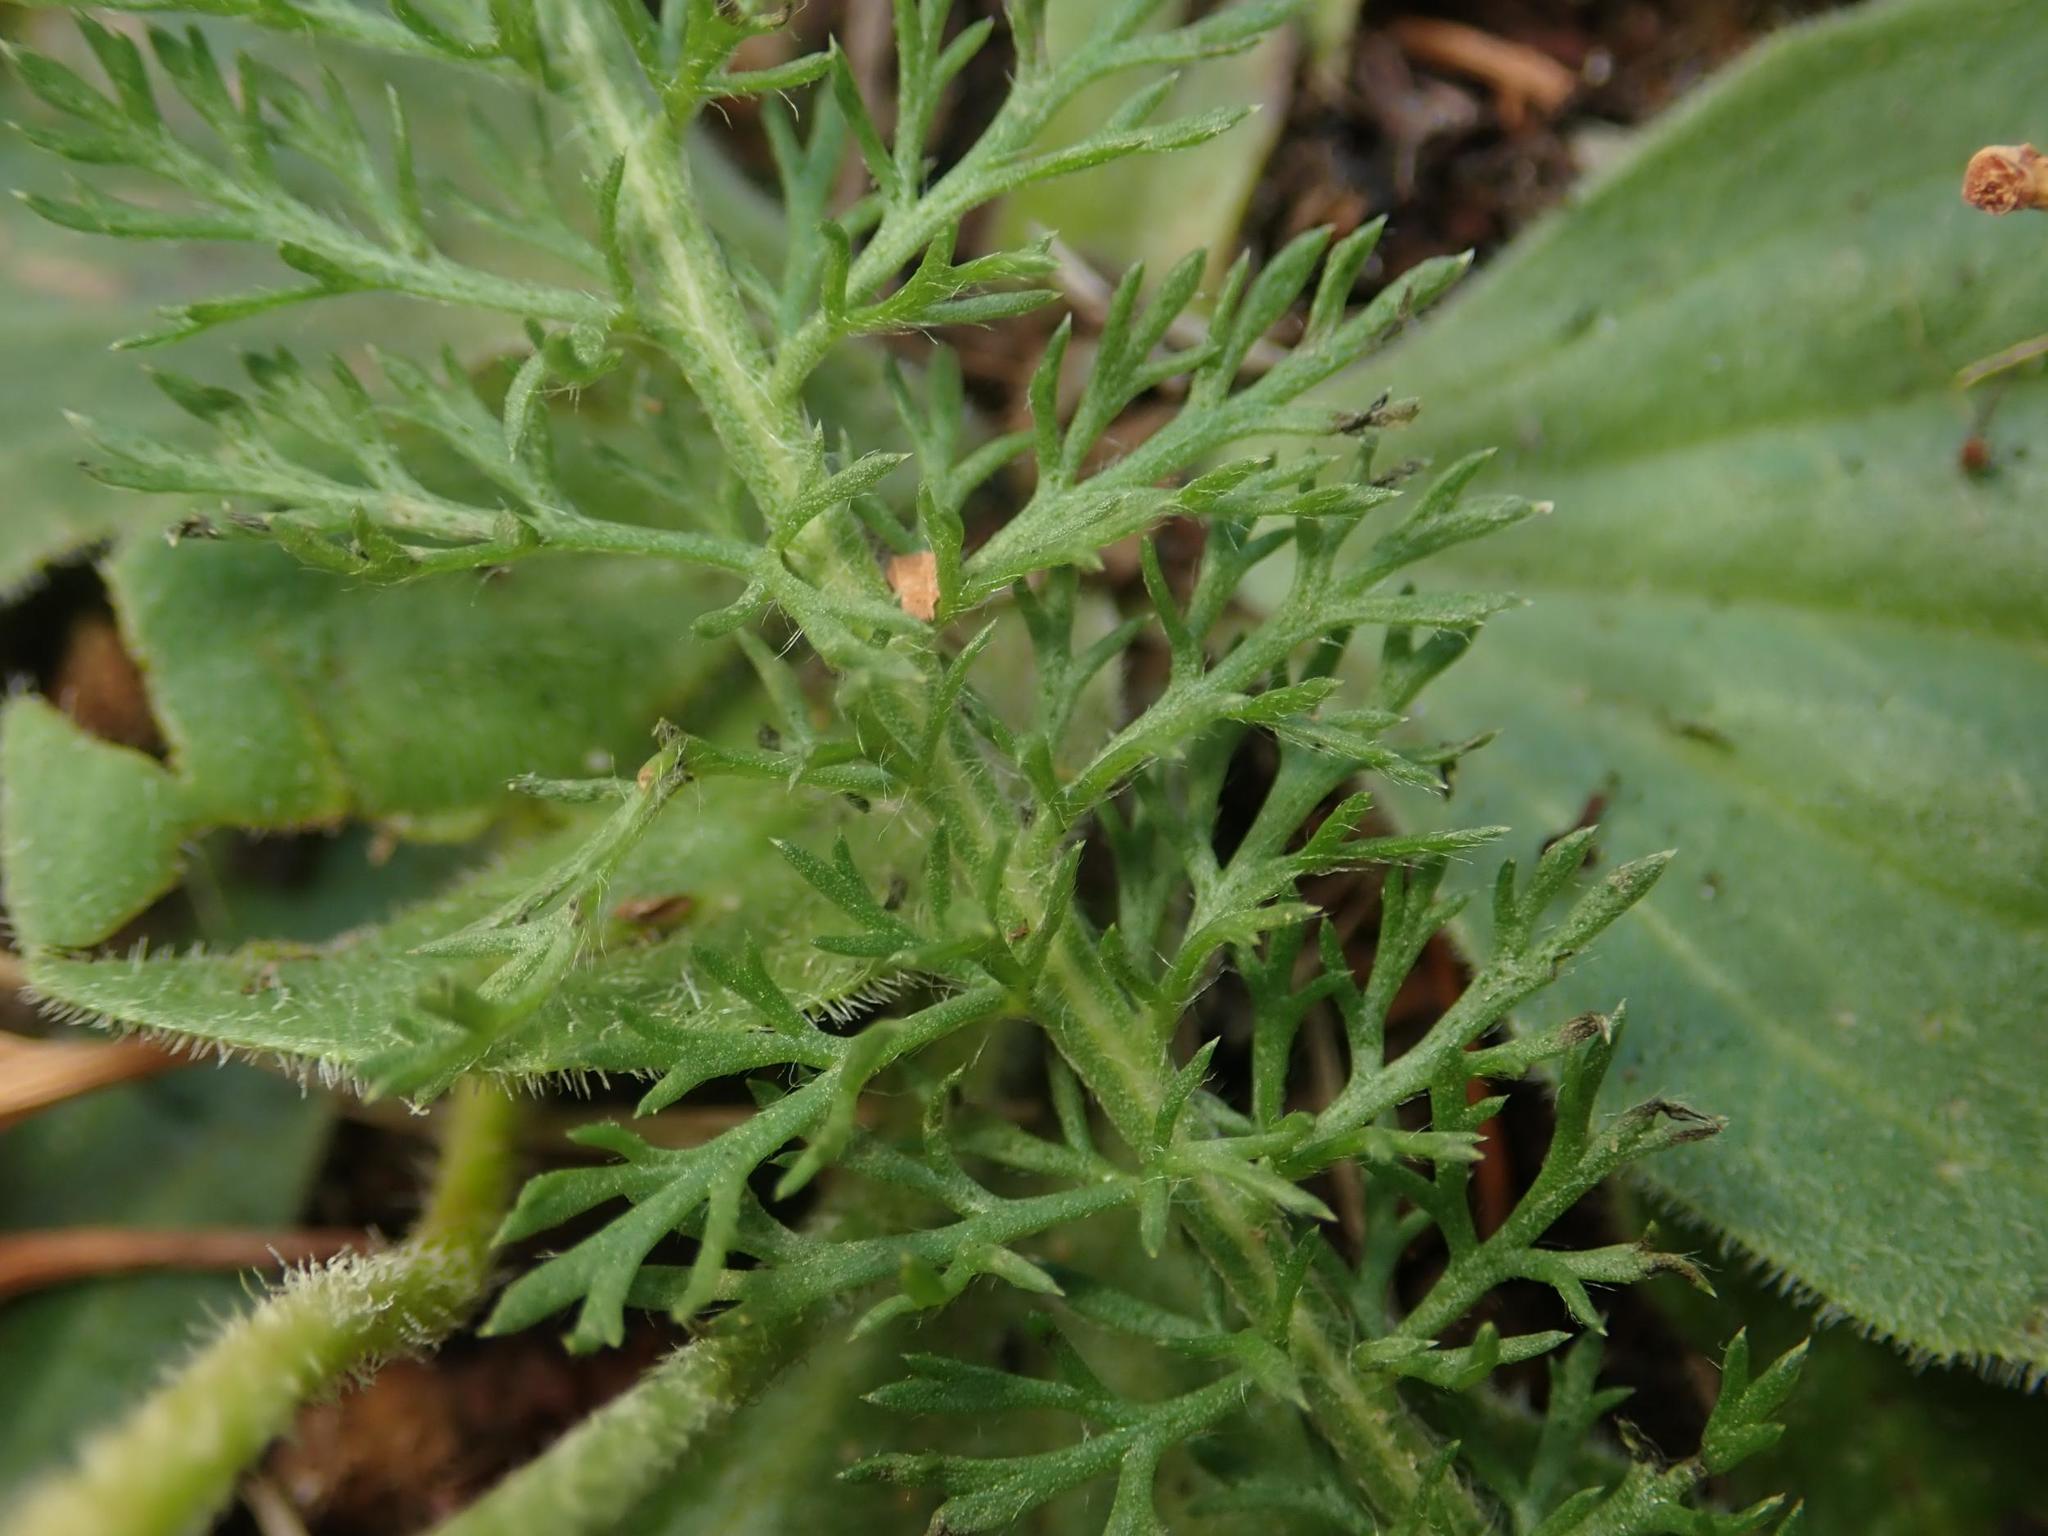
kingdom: Plantae
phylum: Tracheophyta
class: Magnoliopsida
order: Asterales
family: Asteraceae
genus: Achillea
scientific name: Achillea millefolium
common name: Yarrow
